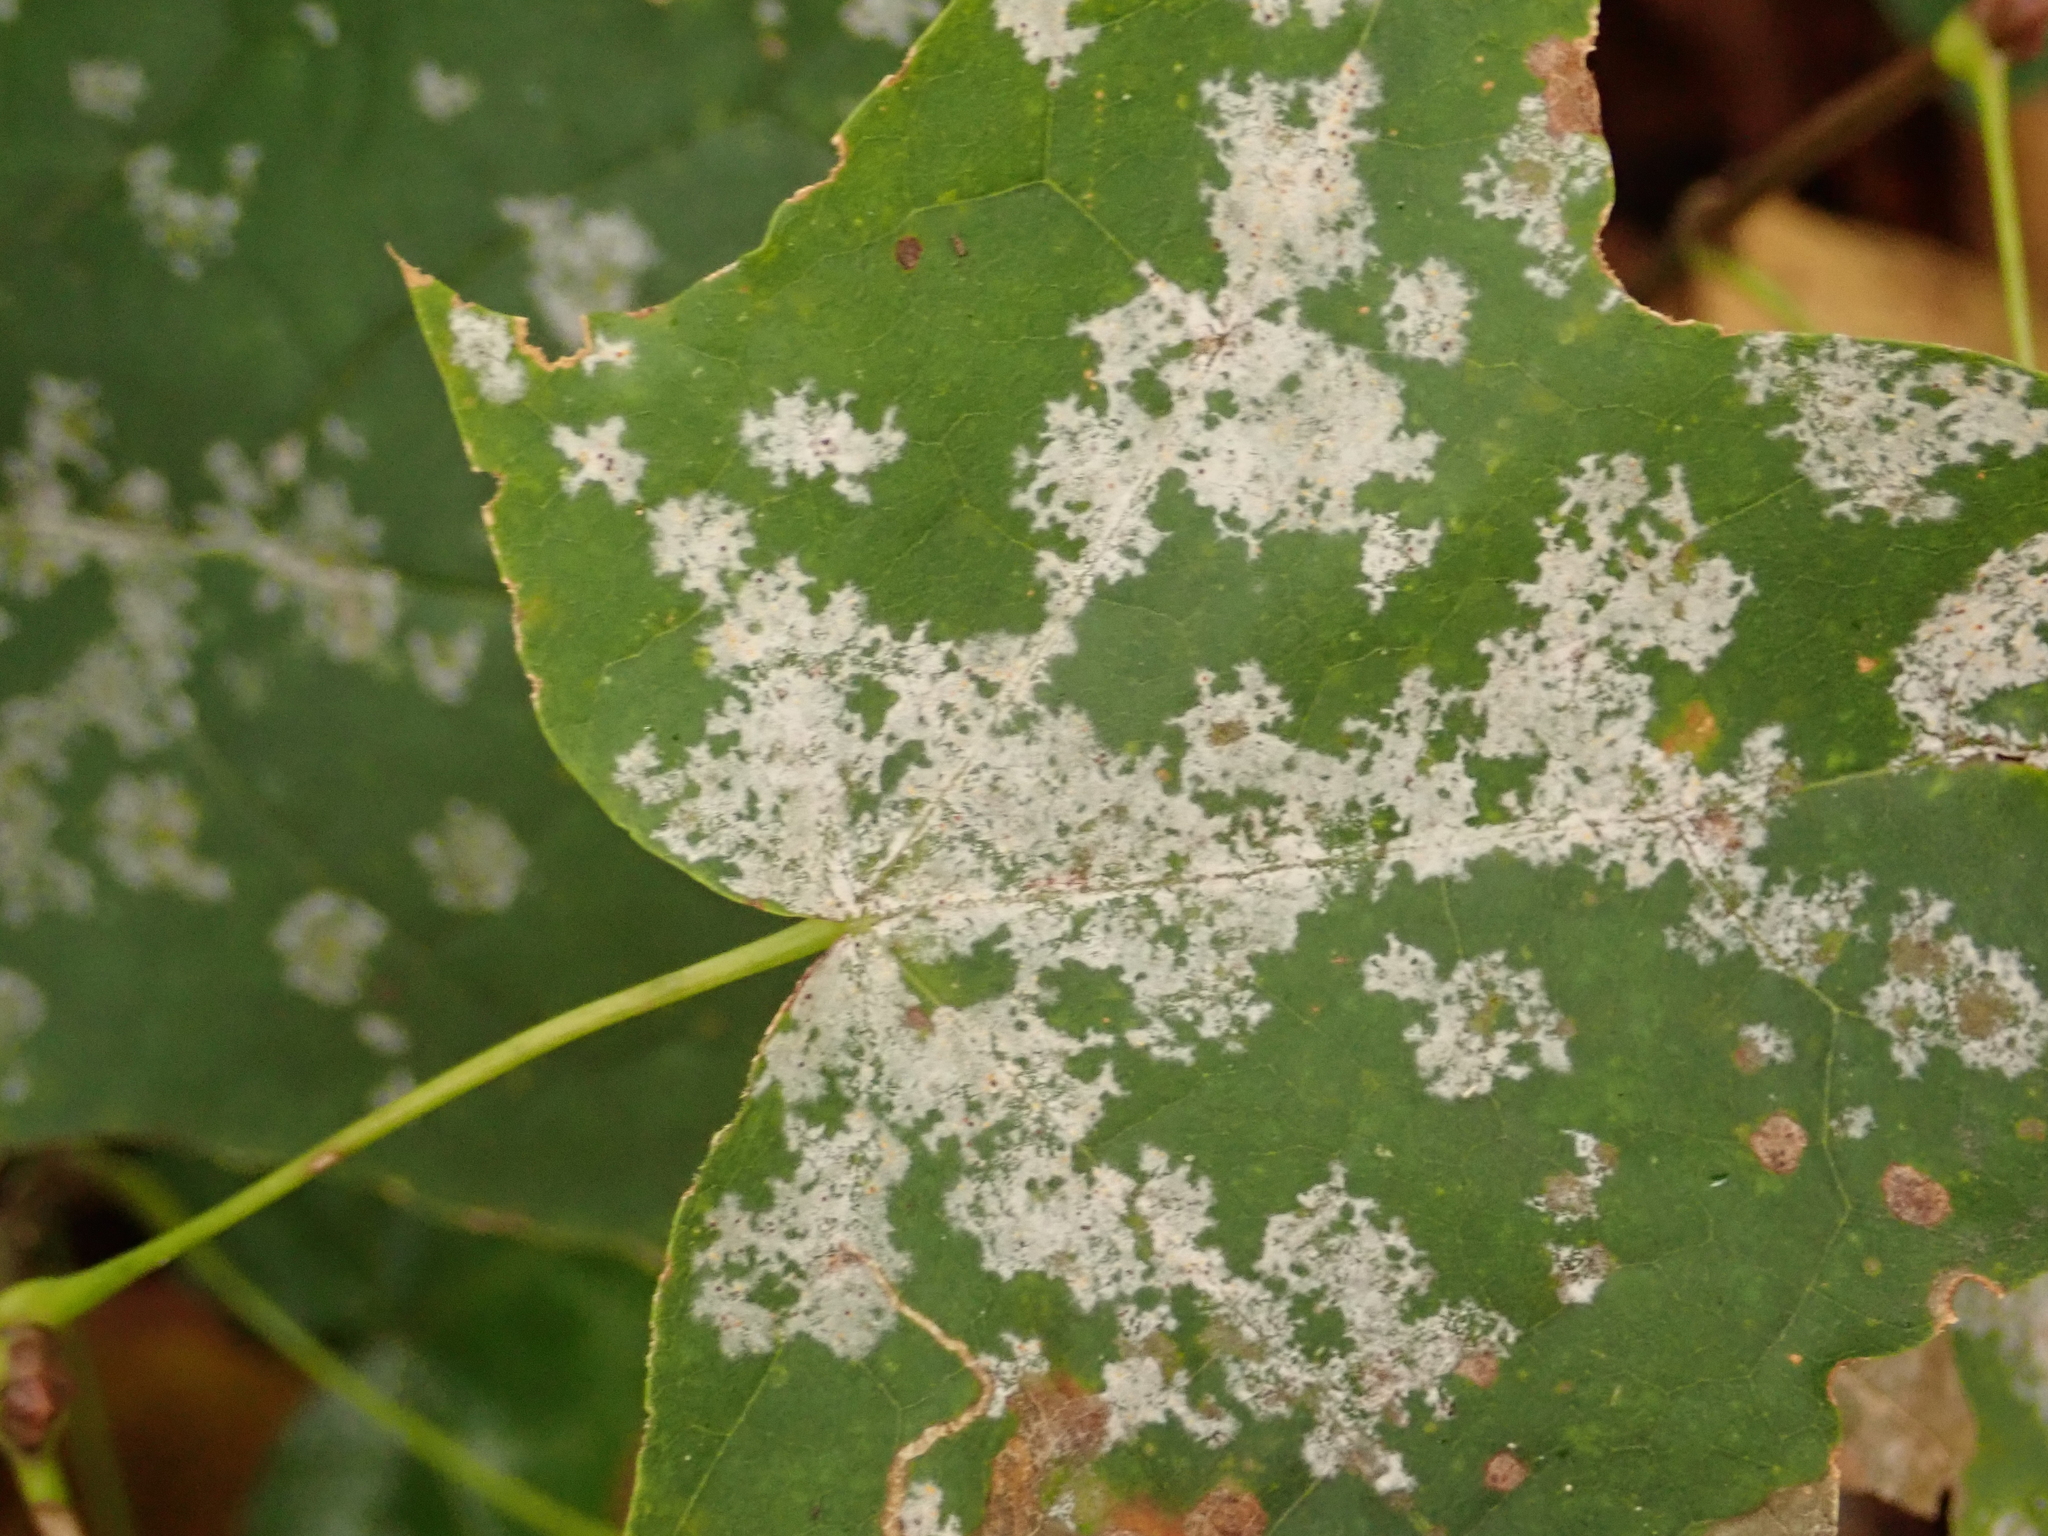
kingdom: Fungi
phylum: Ascomycota
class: Leotiomycetes
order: Helotiales
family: Erysiphaceae
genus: Sawadaea
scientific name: Sawadaea tulasnei
